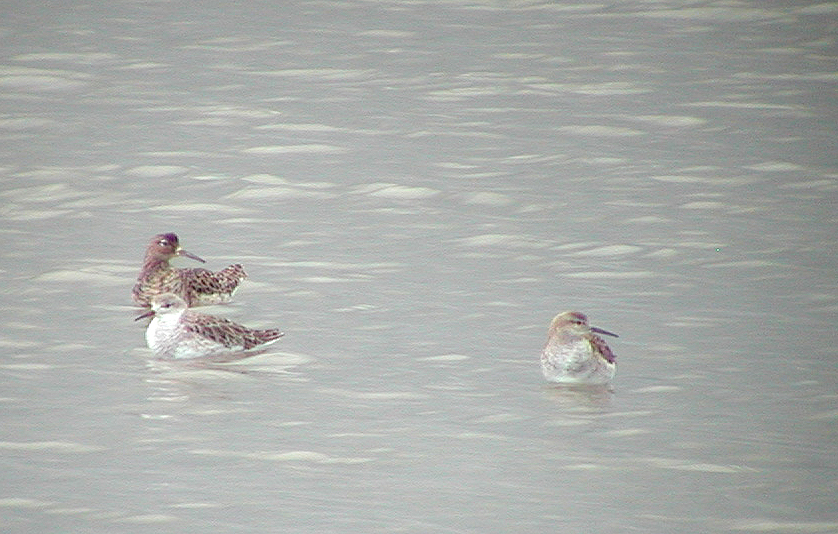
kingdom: Animalia
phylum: Chordata
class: Aves
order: Charadriiformes
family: Scolopacidae
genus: Calidris
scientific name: Calidris pugnax
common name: Ruff
